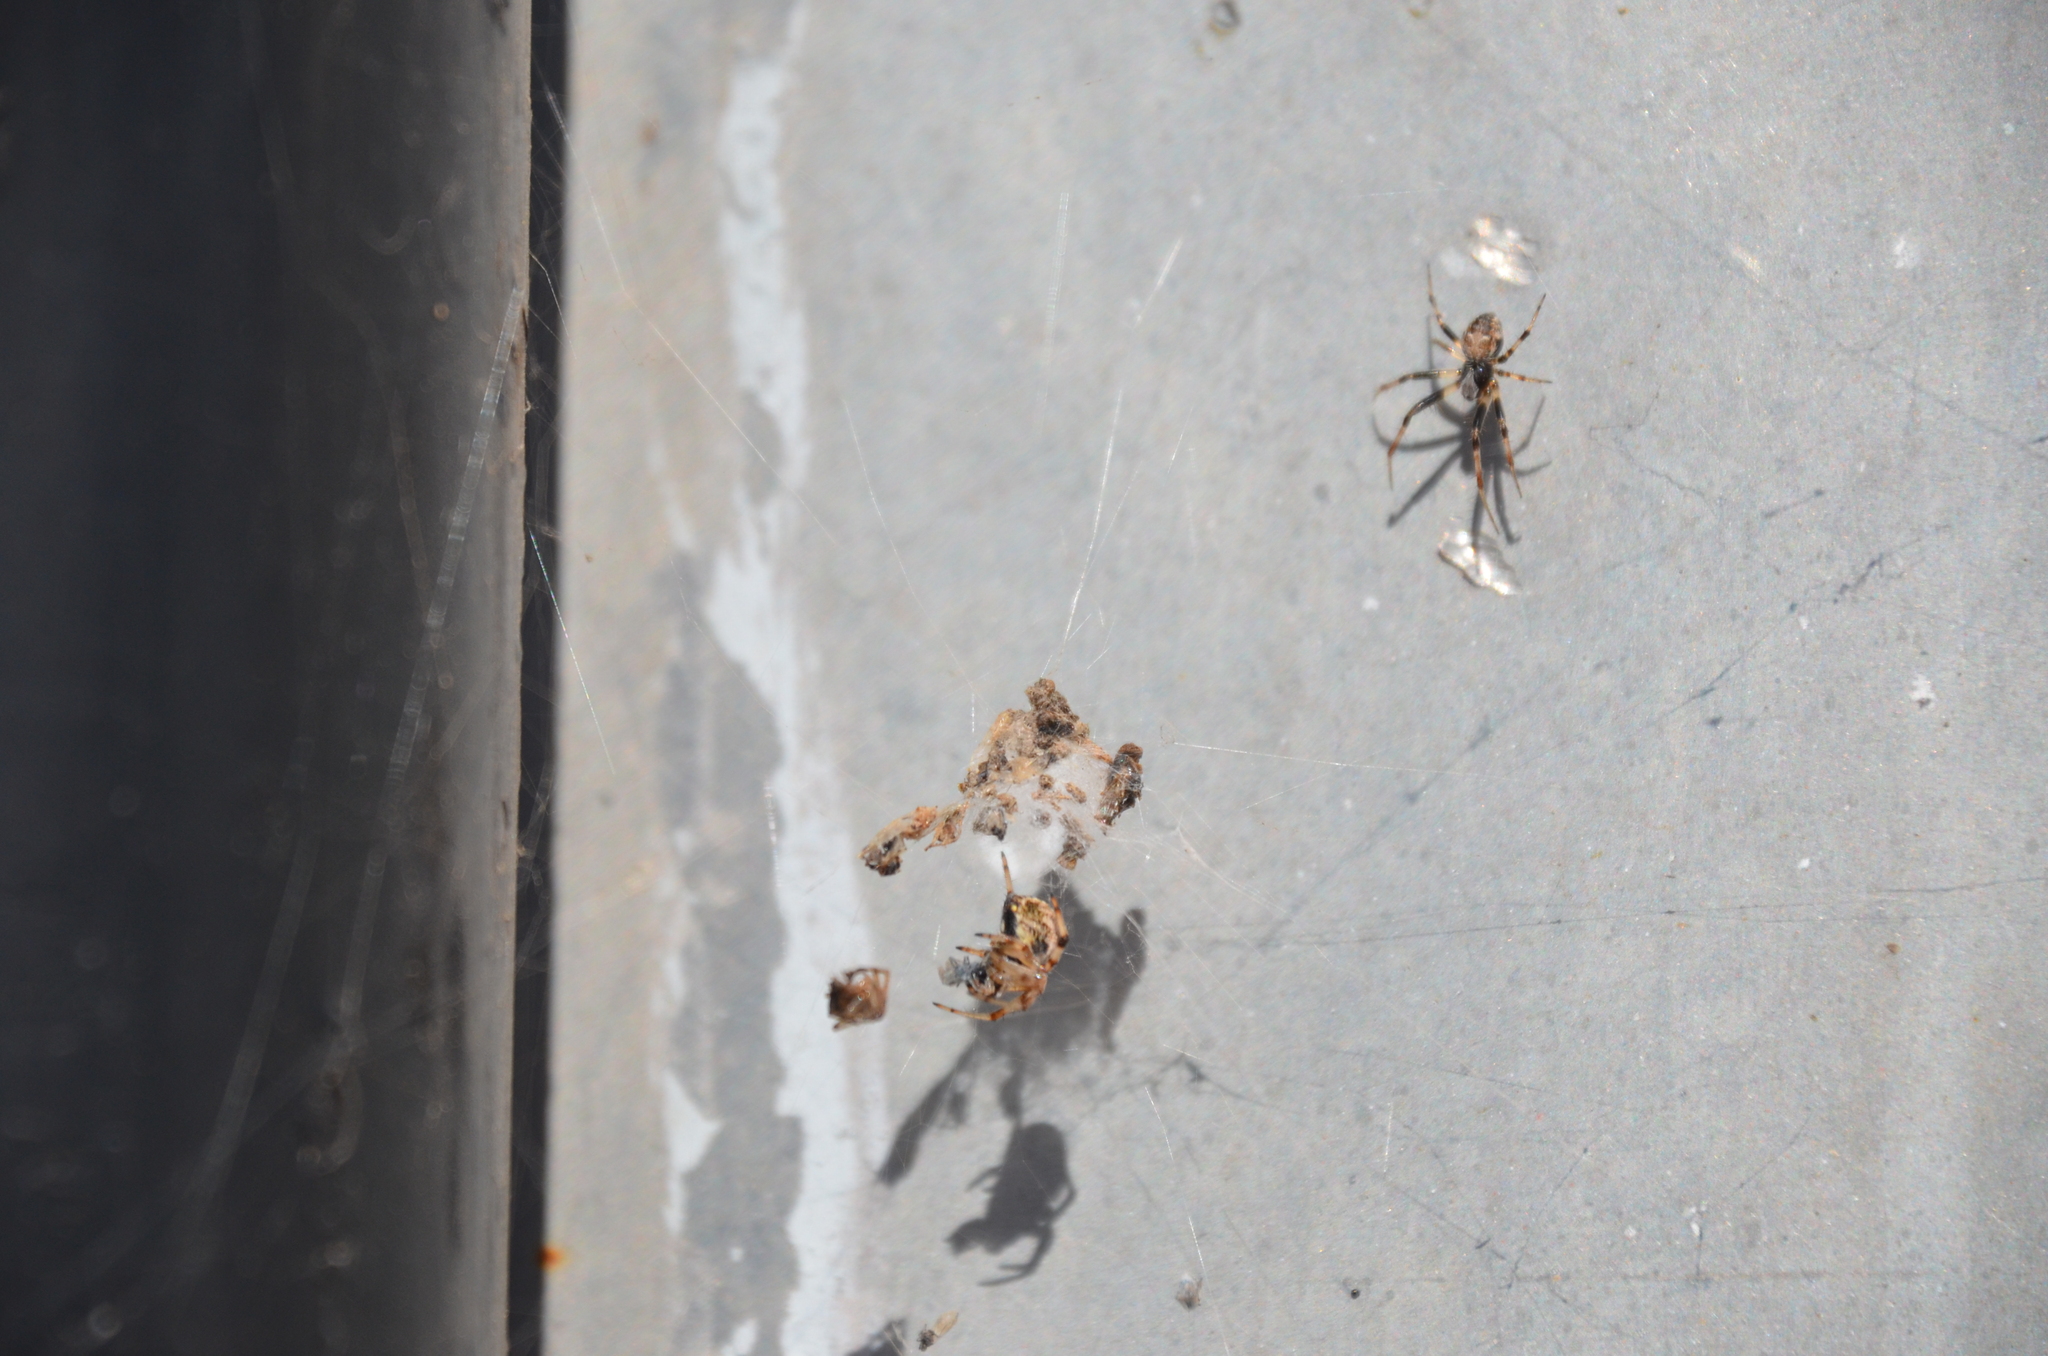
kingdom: Animalia
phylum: Arthropoda
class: Arachnida
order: Araneae
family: Araneidae
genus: Metepeira
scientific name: Metepeira
